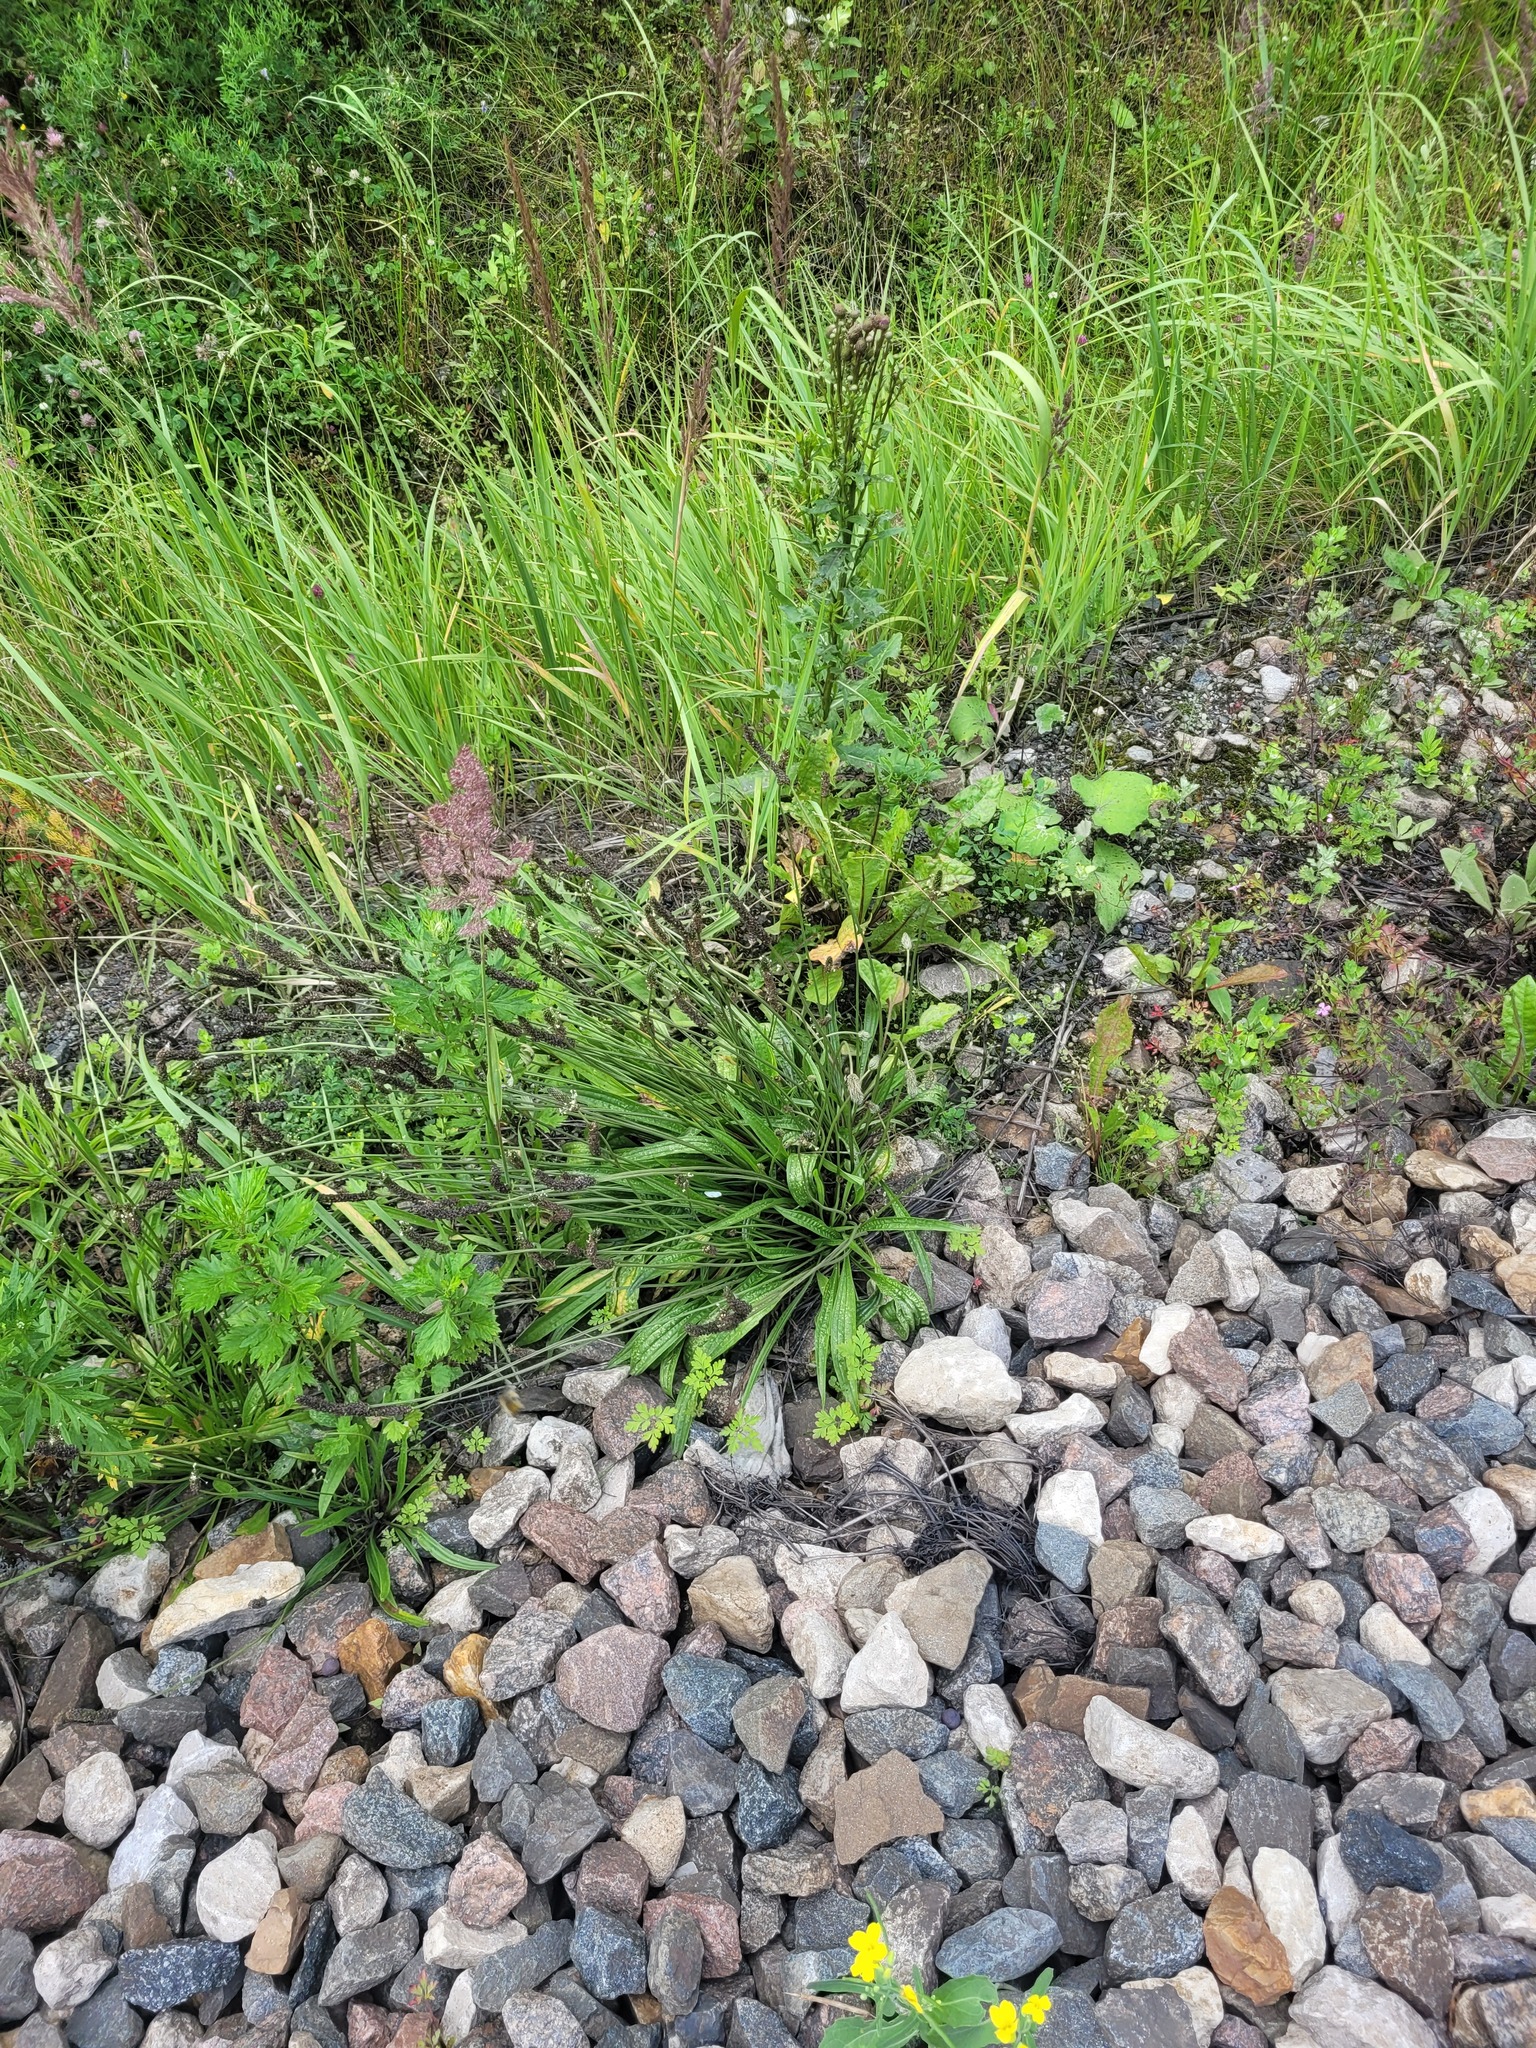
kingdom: Plantae
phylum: Tracheophyta
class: Magnoliopsida
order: Lamiales
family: Plantaginaceae
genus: Plantago
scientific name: Plantago lanceolata
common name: Ribwort plantain
